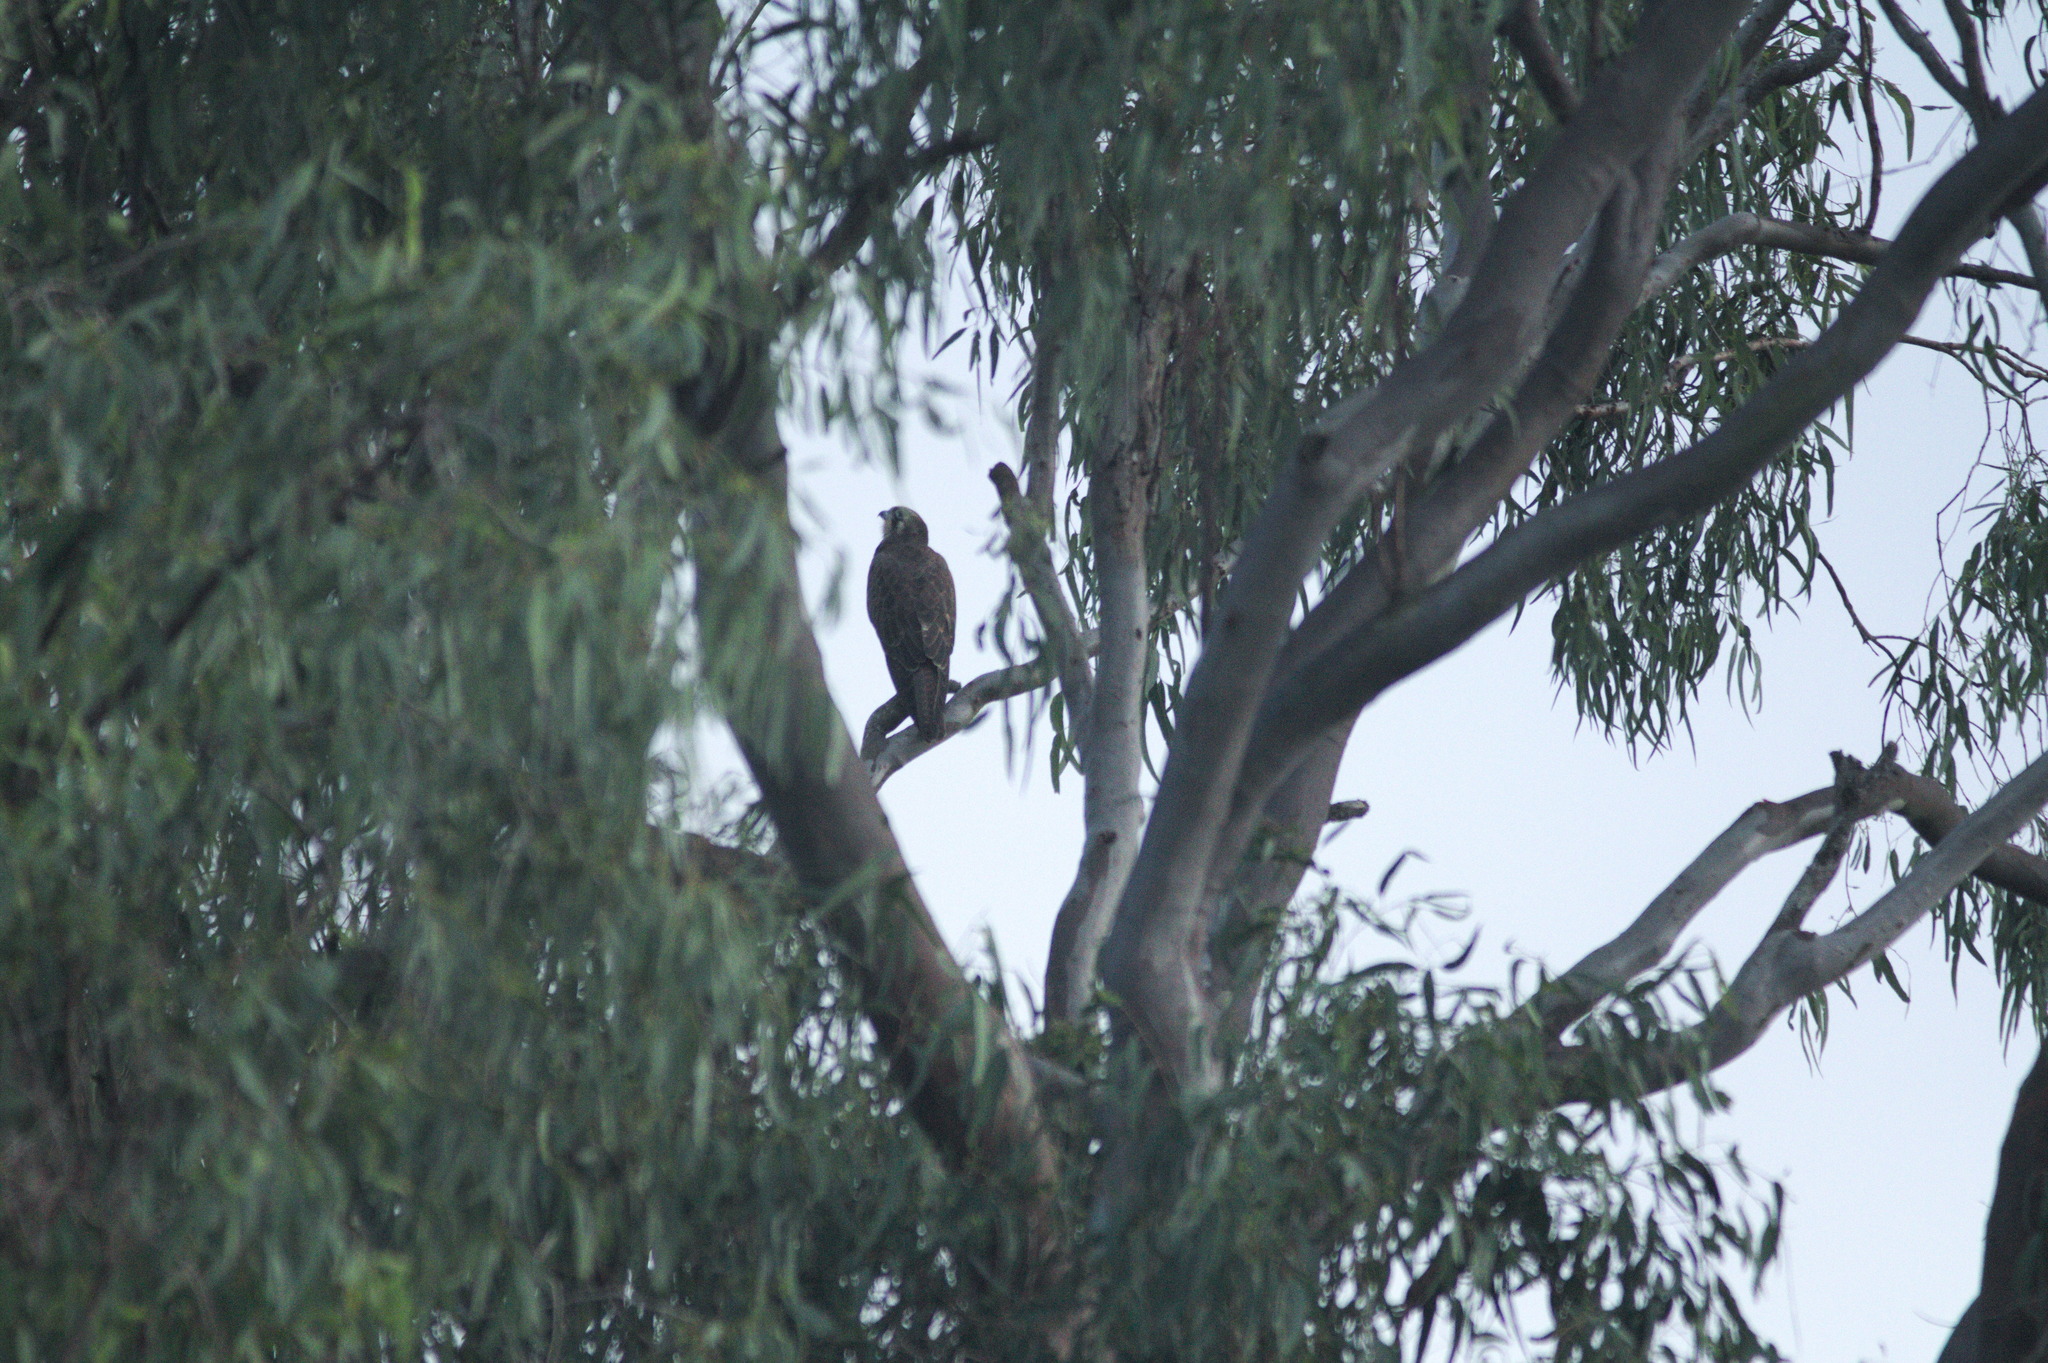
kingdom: Animalia
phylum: Chordata
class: Aves
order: Falconiformes
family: Falconidae
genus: Falco
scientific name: Falco berigora
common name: Brown falcon
